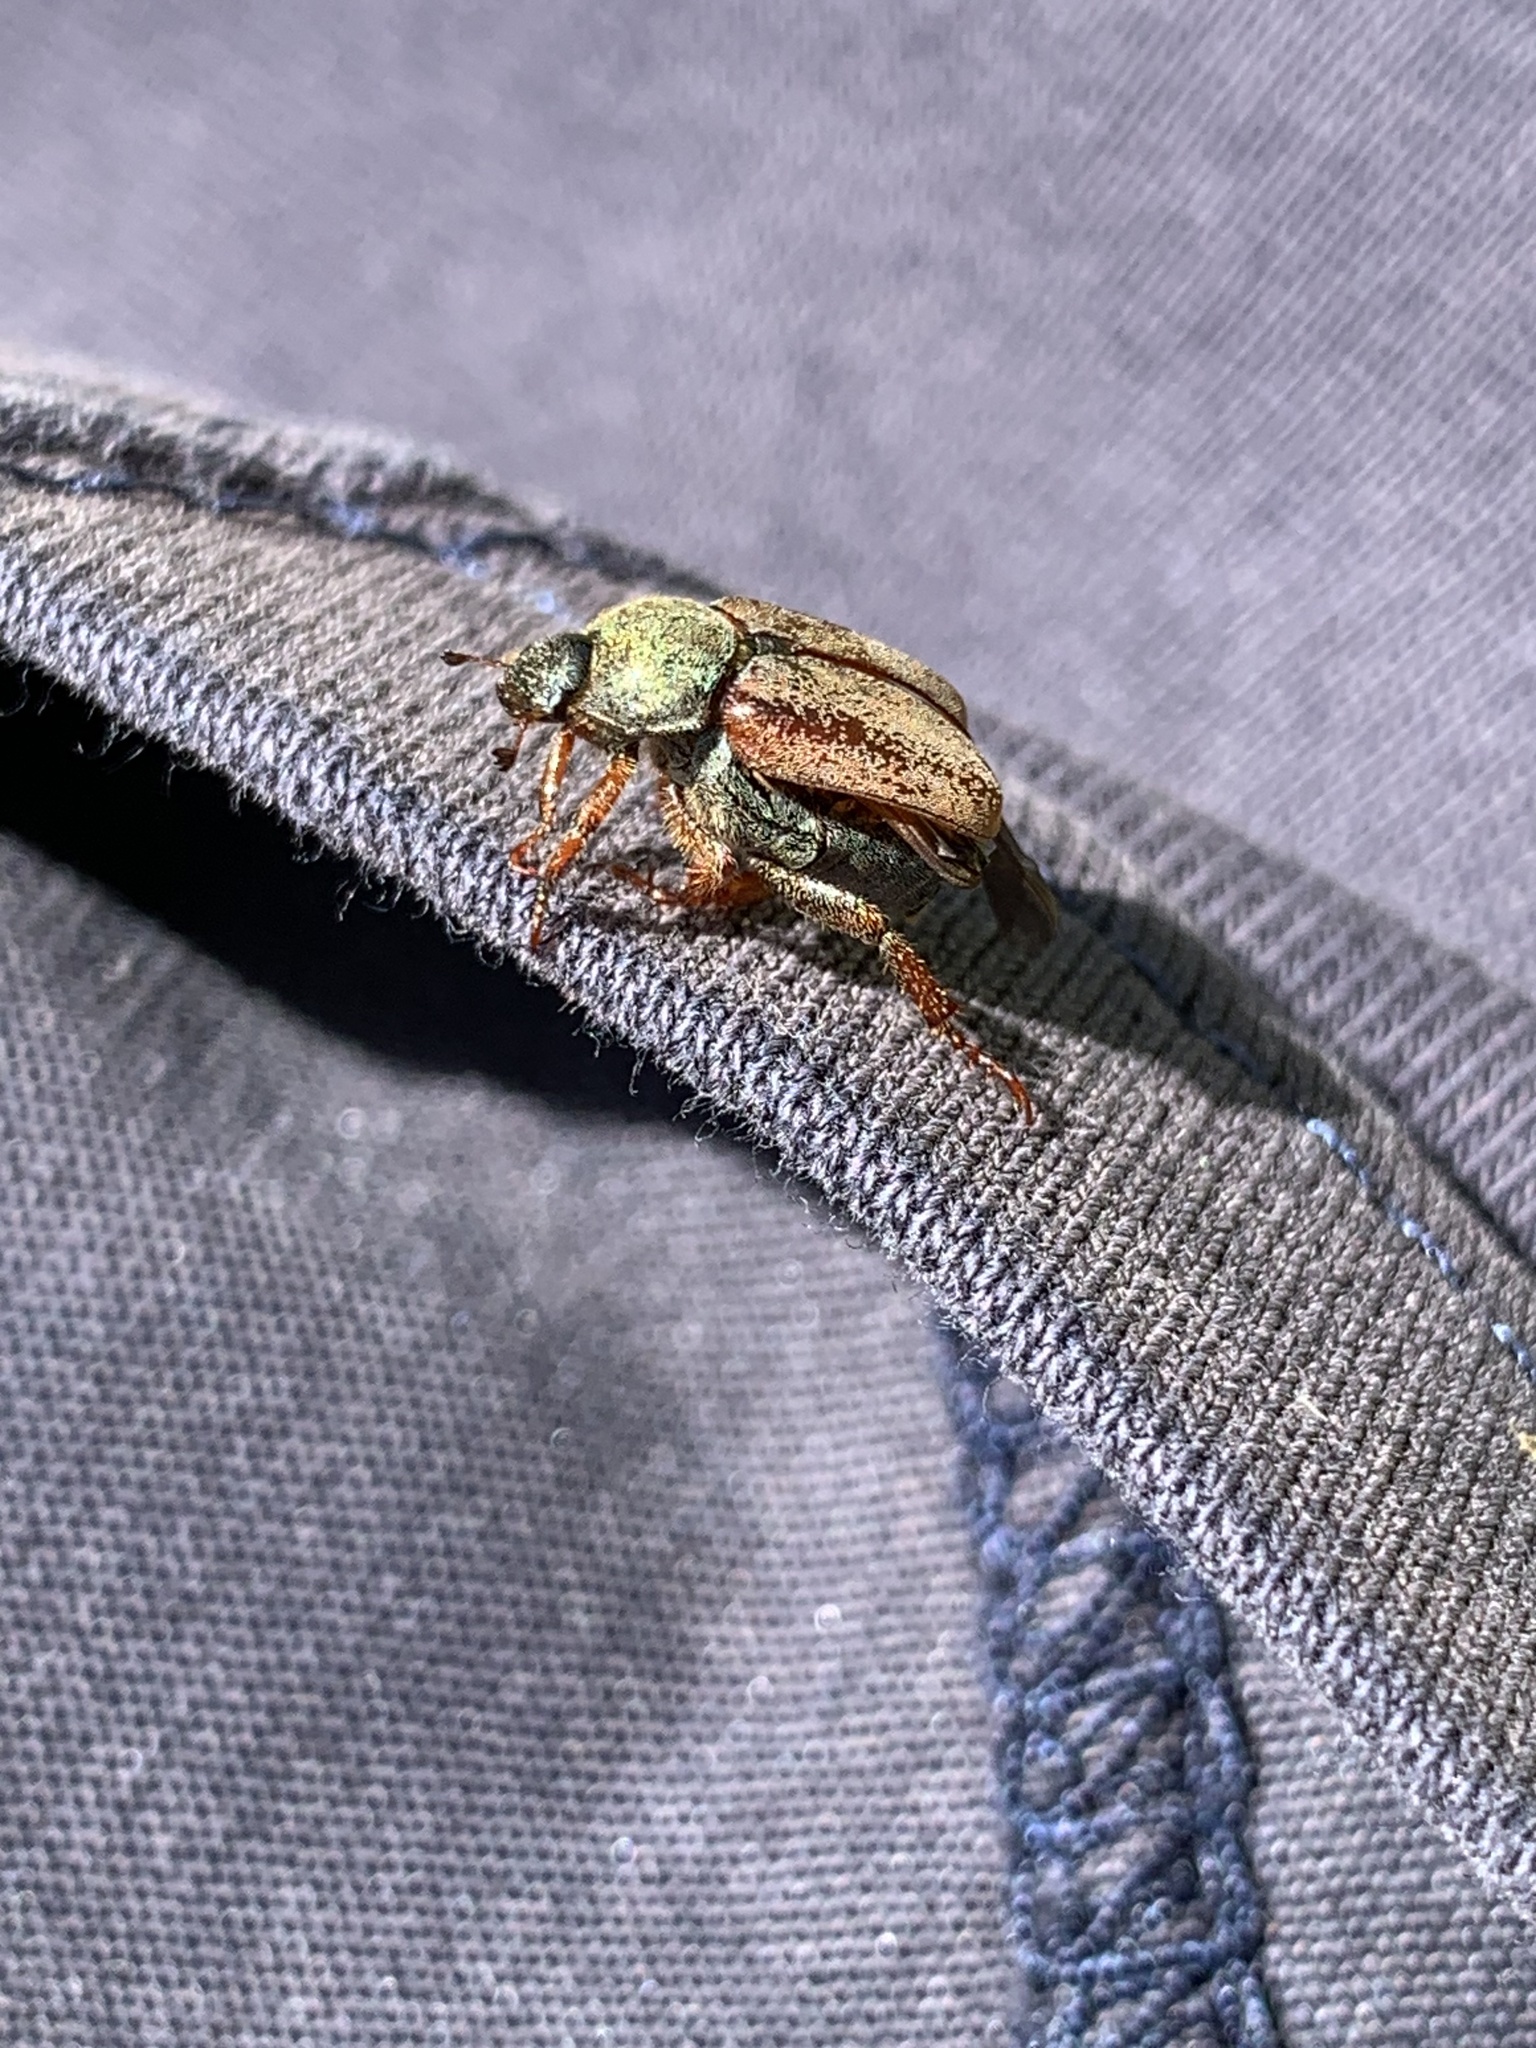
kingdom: Animalia
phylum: Arthropoda
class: Insecta
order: Coleoptera
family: Scarabaeidae
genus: Hoplia
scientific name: Hoplia philanthus
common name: Welsh chafer
